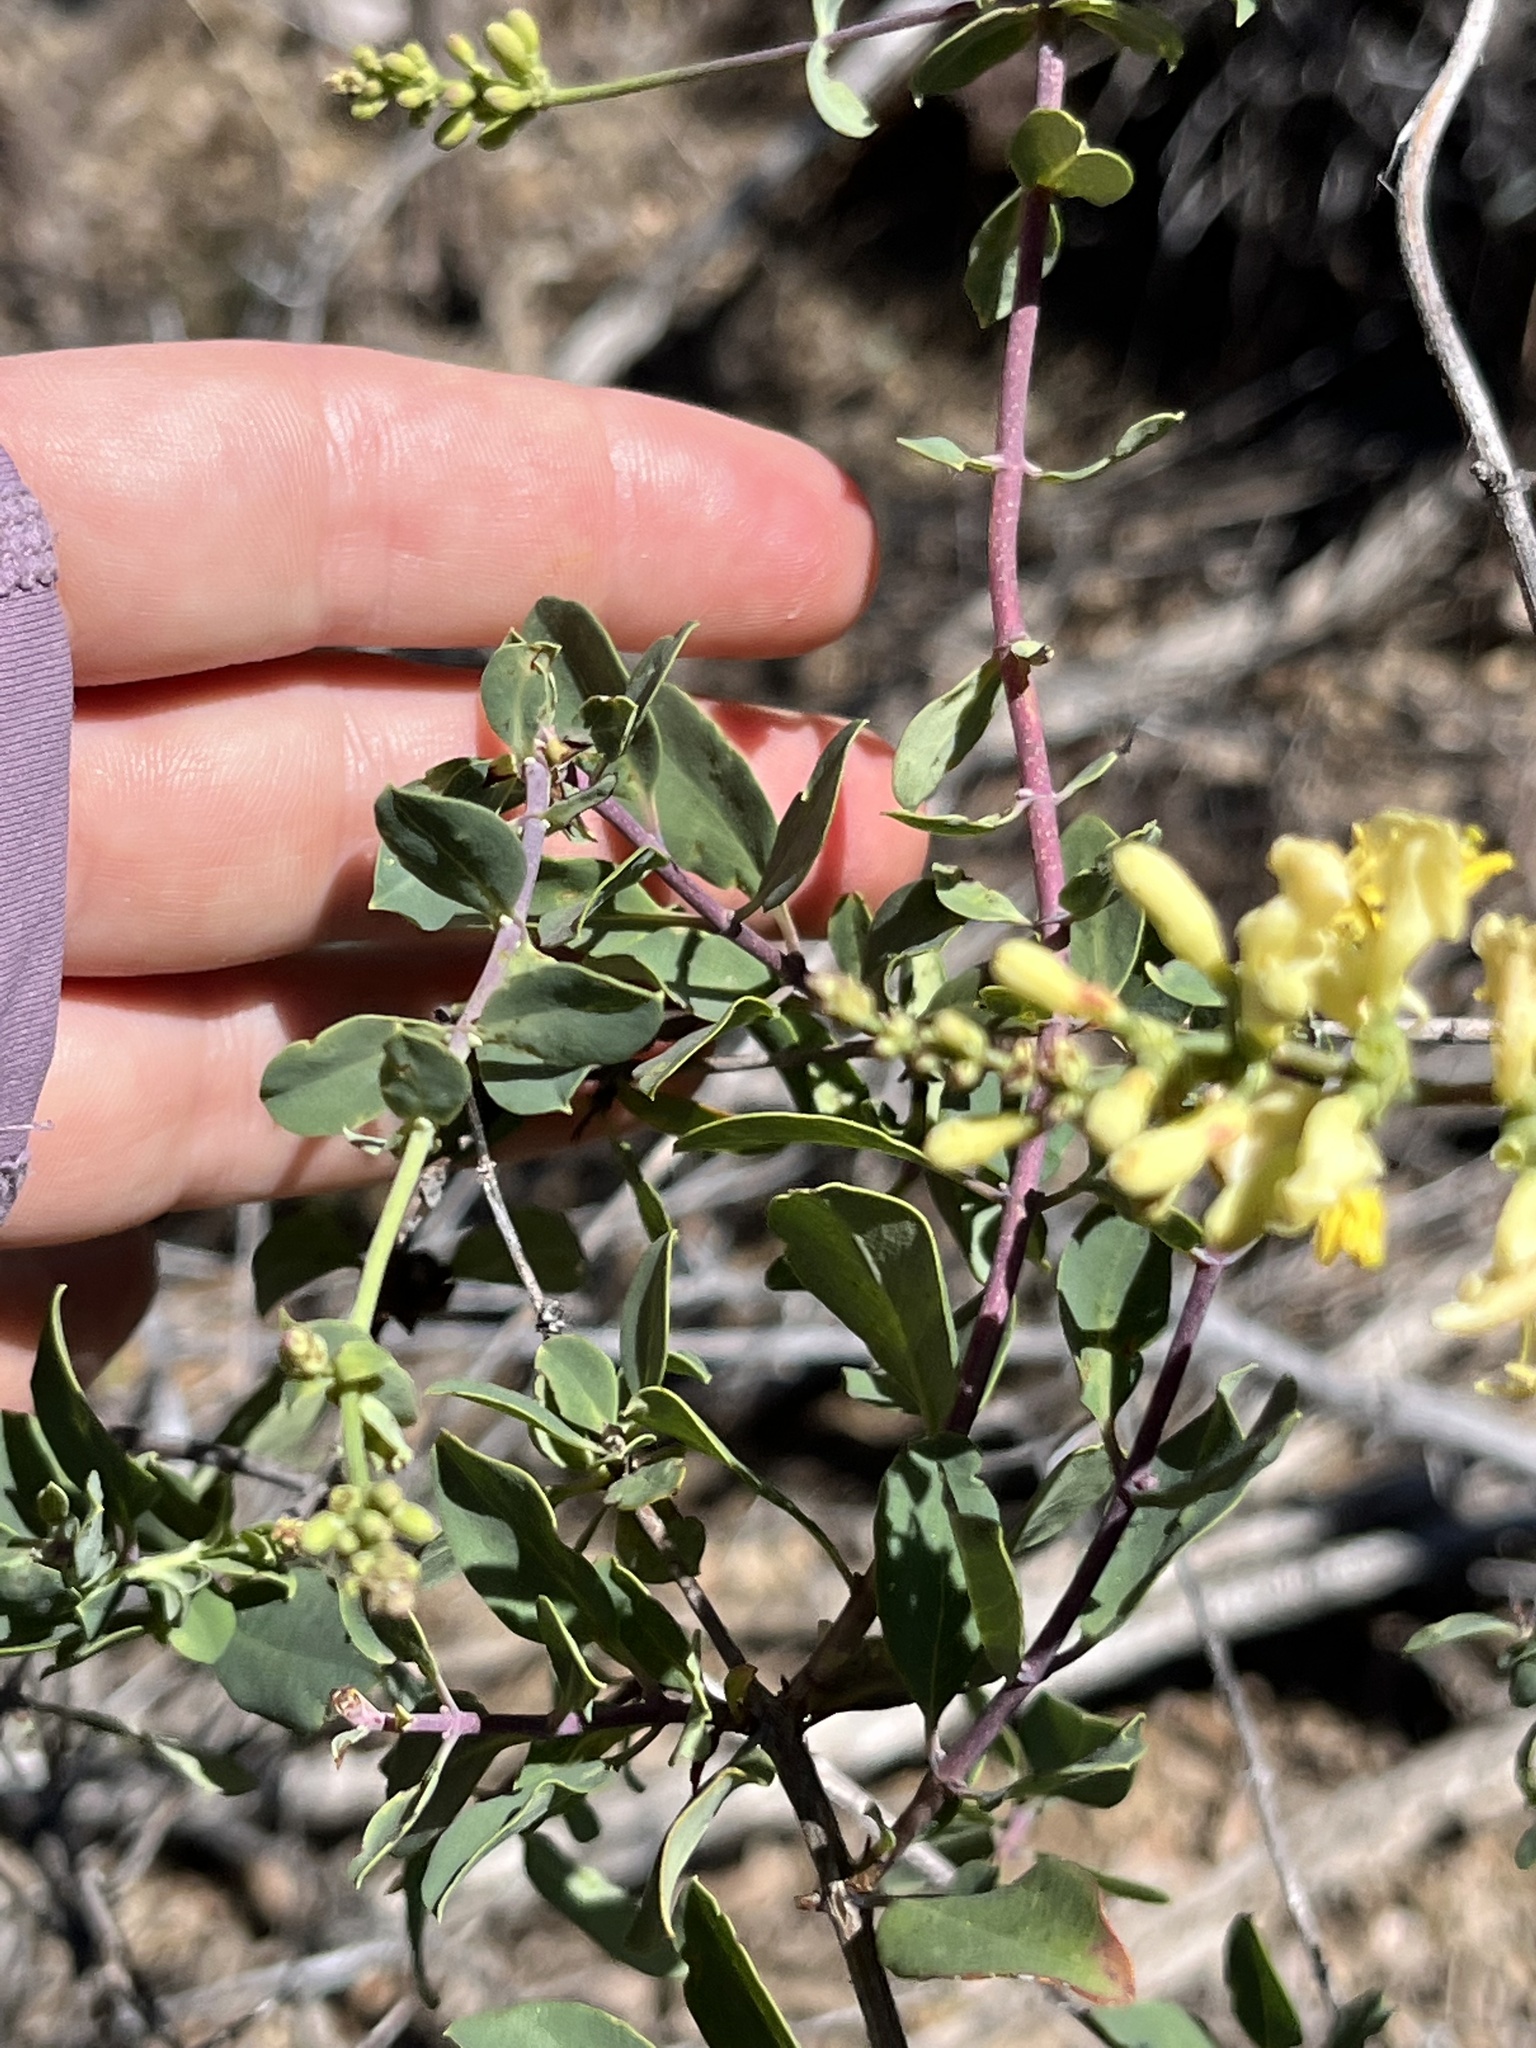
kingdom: Plantae
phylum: Tracheophyta
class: Magnoliopsida
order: Dipsacales
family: Caprifoliaceae
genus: Lonicera
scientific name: Lonicera interrupta
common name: Chaparral honeysuckle
